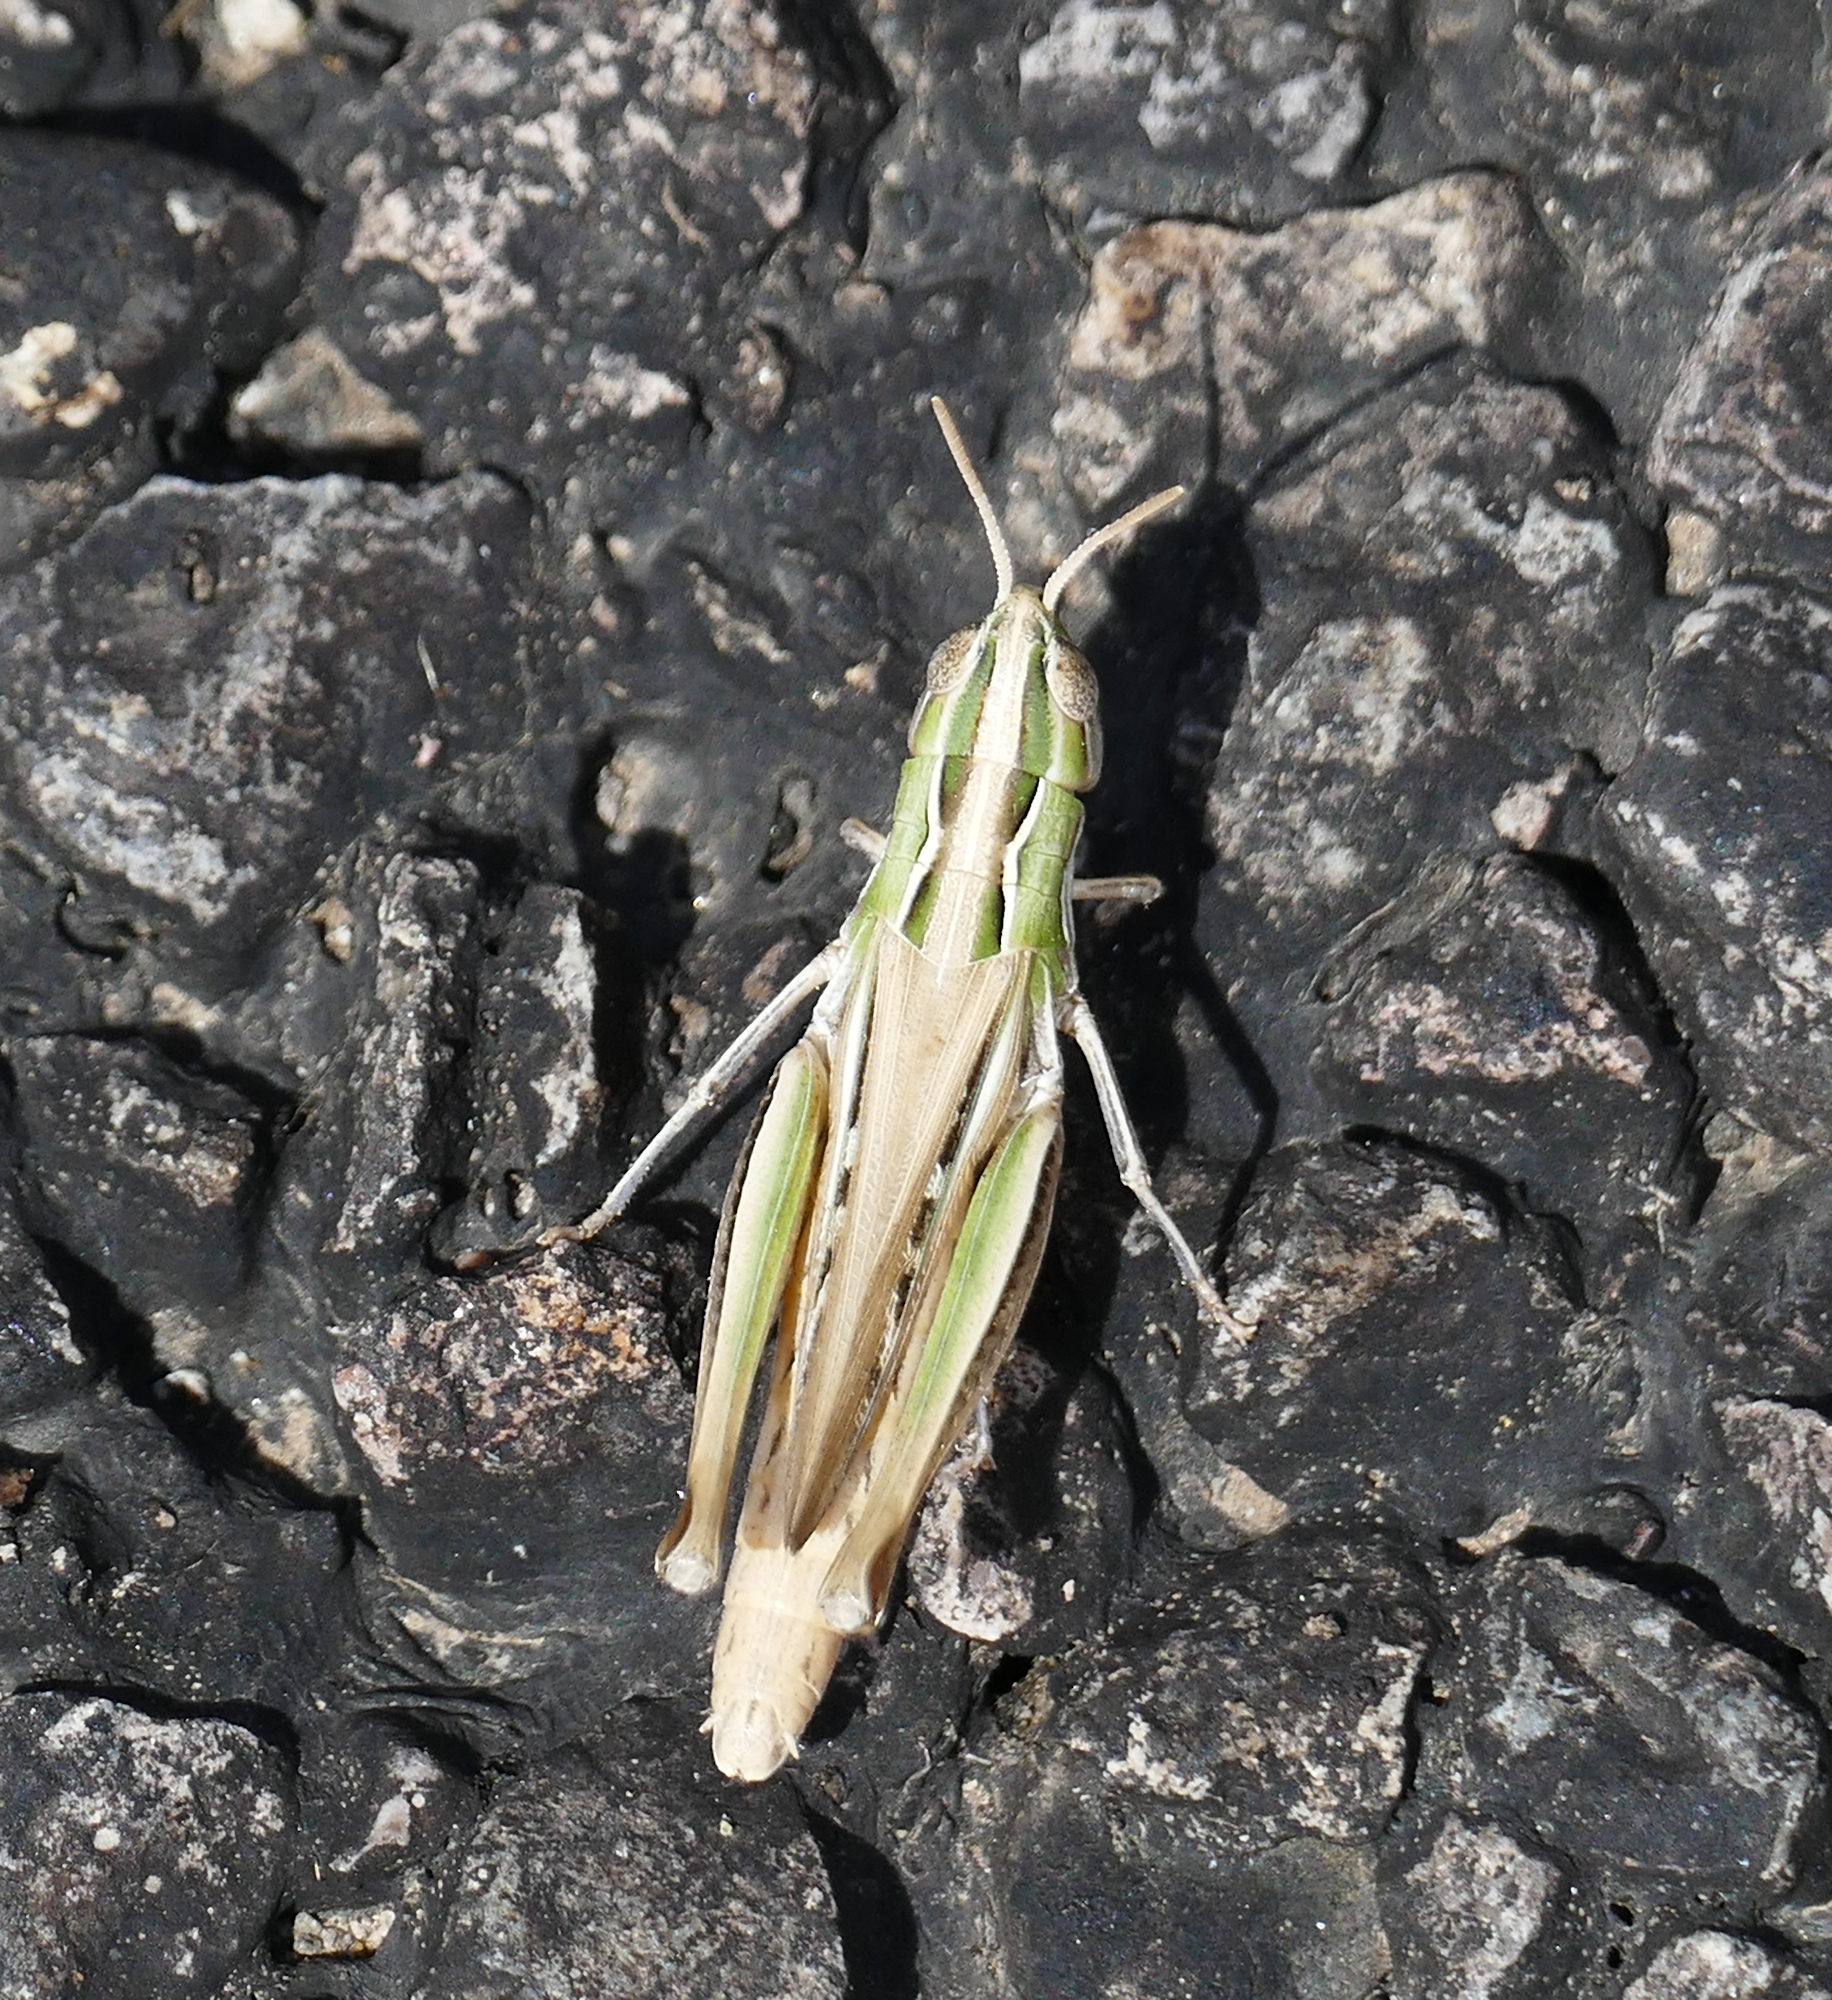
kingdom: Animalia
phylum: Arthropoda
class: Insecta
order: Orthoptera
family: Acrididae
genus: Eritettix
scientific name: Eritettix simplex
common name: Velvet-striped grasshopper
